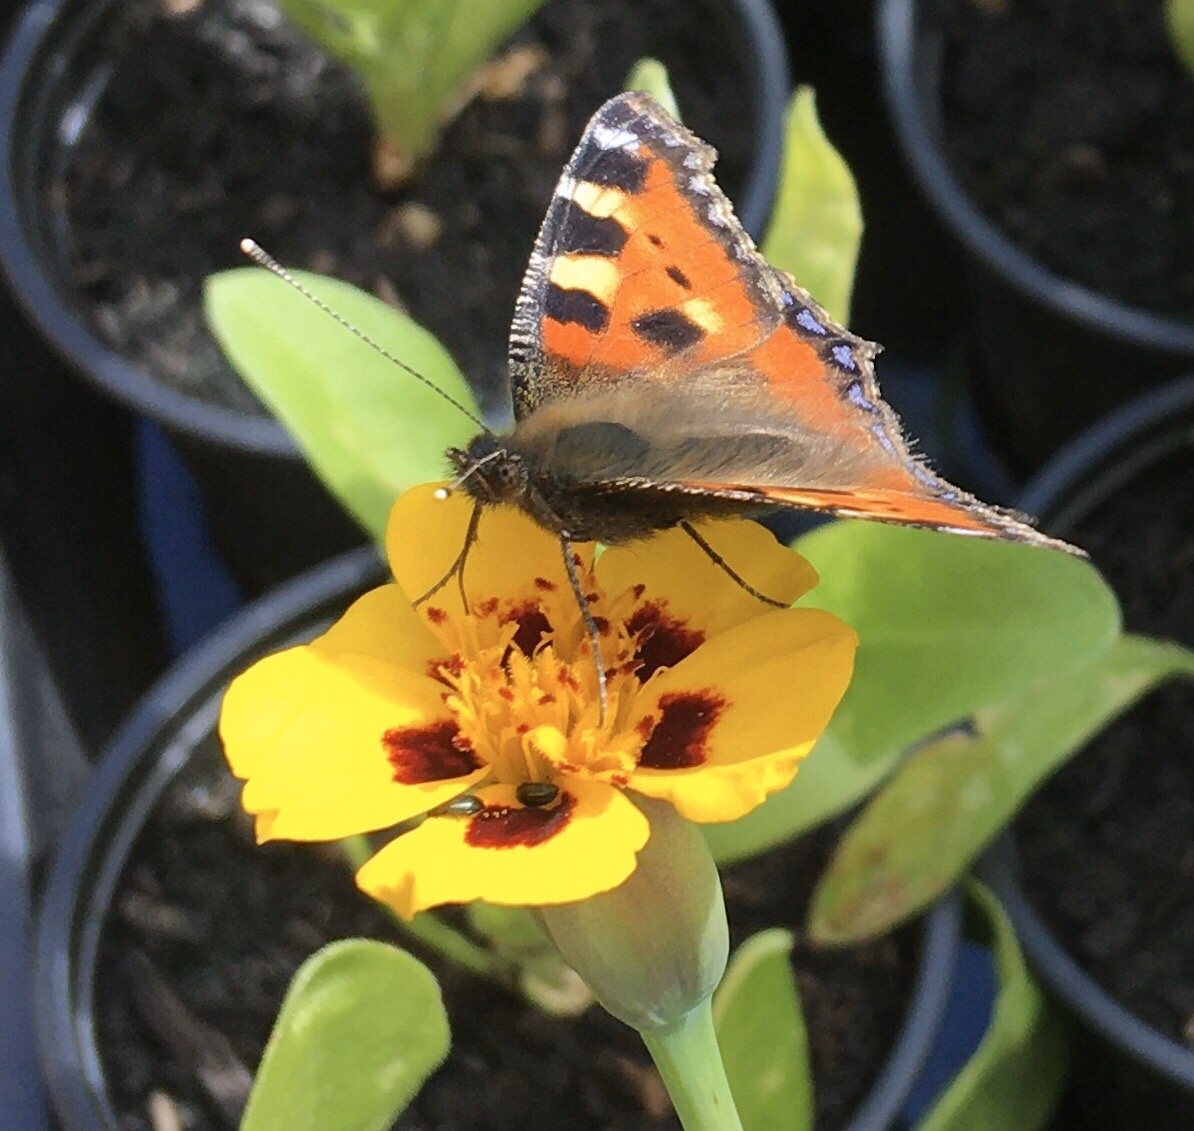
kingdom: Animalia
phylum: Arthropoda
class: Insecta
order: Lepidoptera
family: Nymphalidae
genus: Aglais
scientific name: Aglais urticae
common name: Small tortoiseshell
